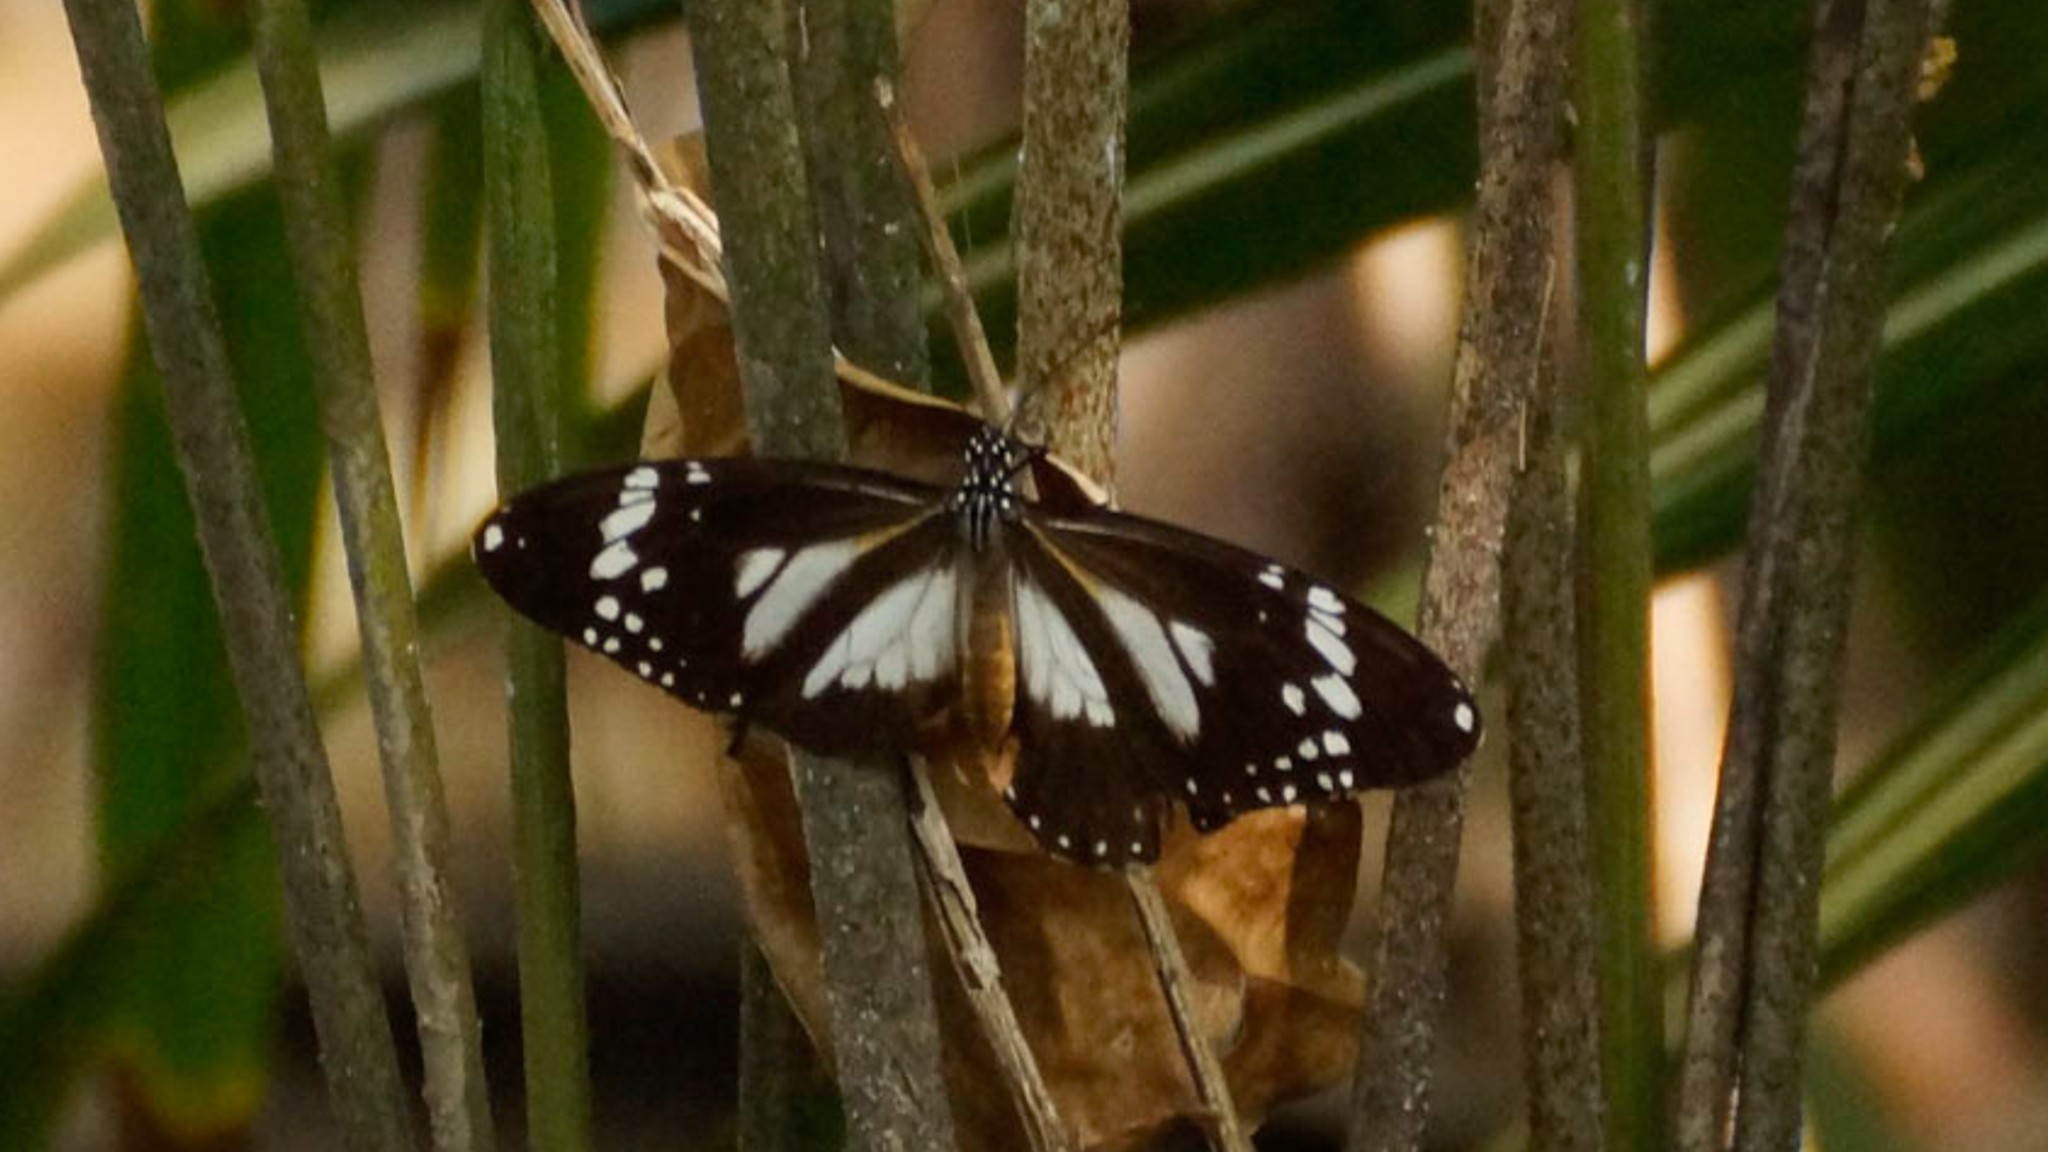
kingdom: Animalia
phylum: Arthropoda
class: Insecta
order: Lepidoptera
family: Nymphalidae
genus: Danaus
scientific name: Danaus affinis
